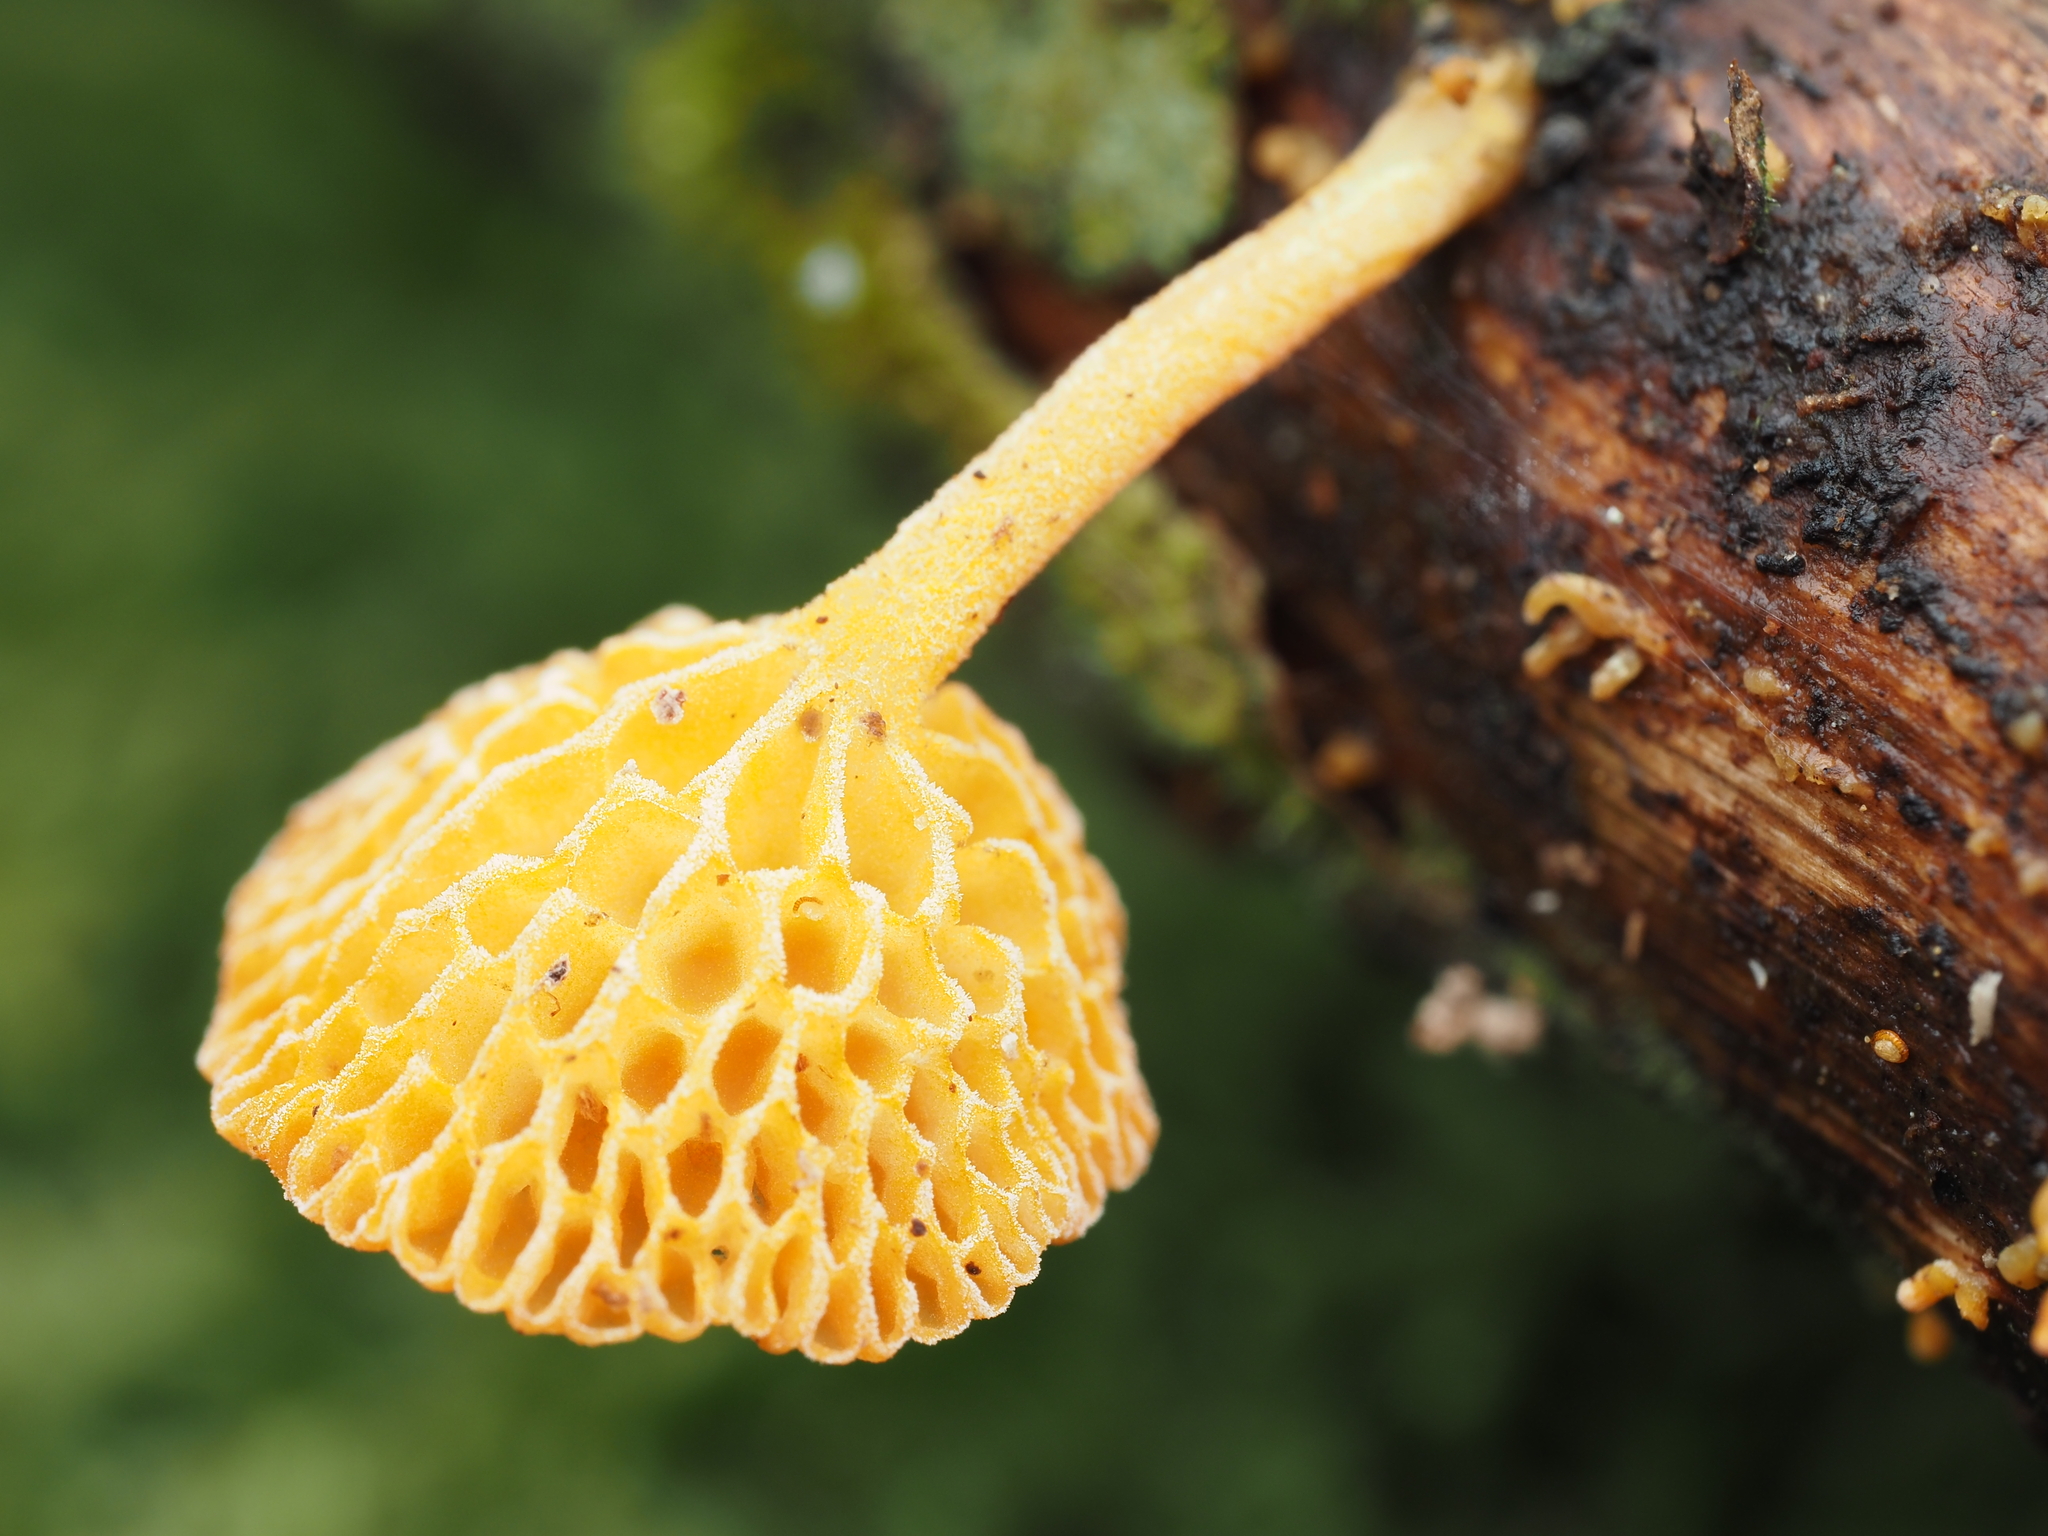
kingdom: Fungi
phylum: Basidiomycota
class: Agaricomycetes
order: Agaricales
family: Mycenaceae
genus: Favolaschia
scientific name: Favolaschia claudopus
